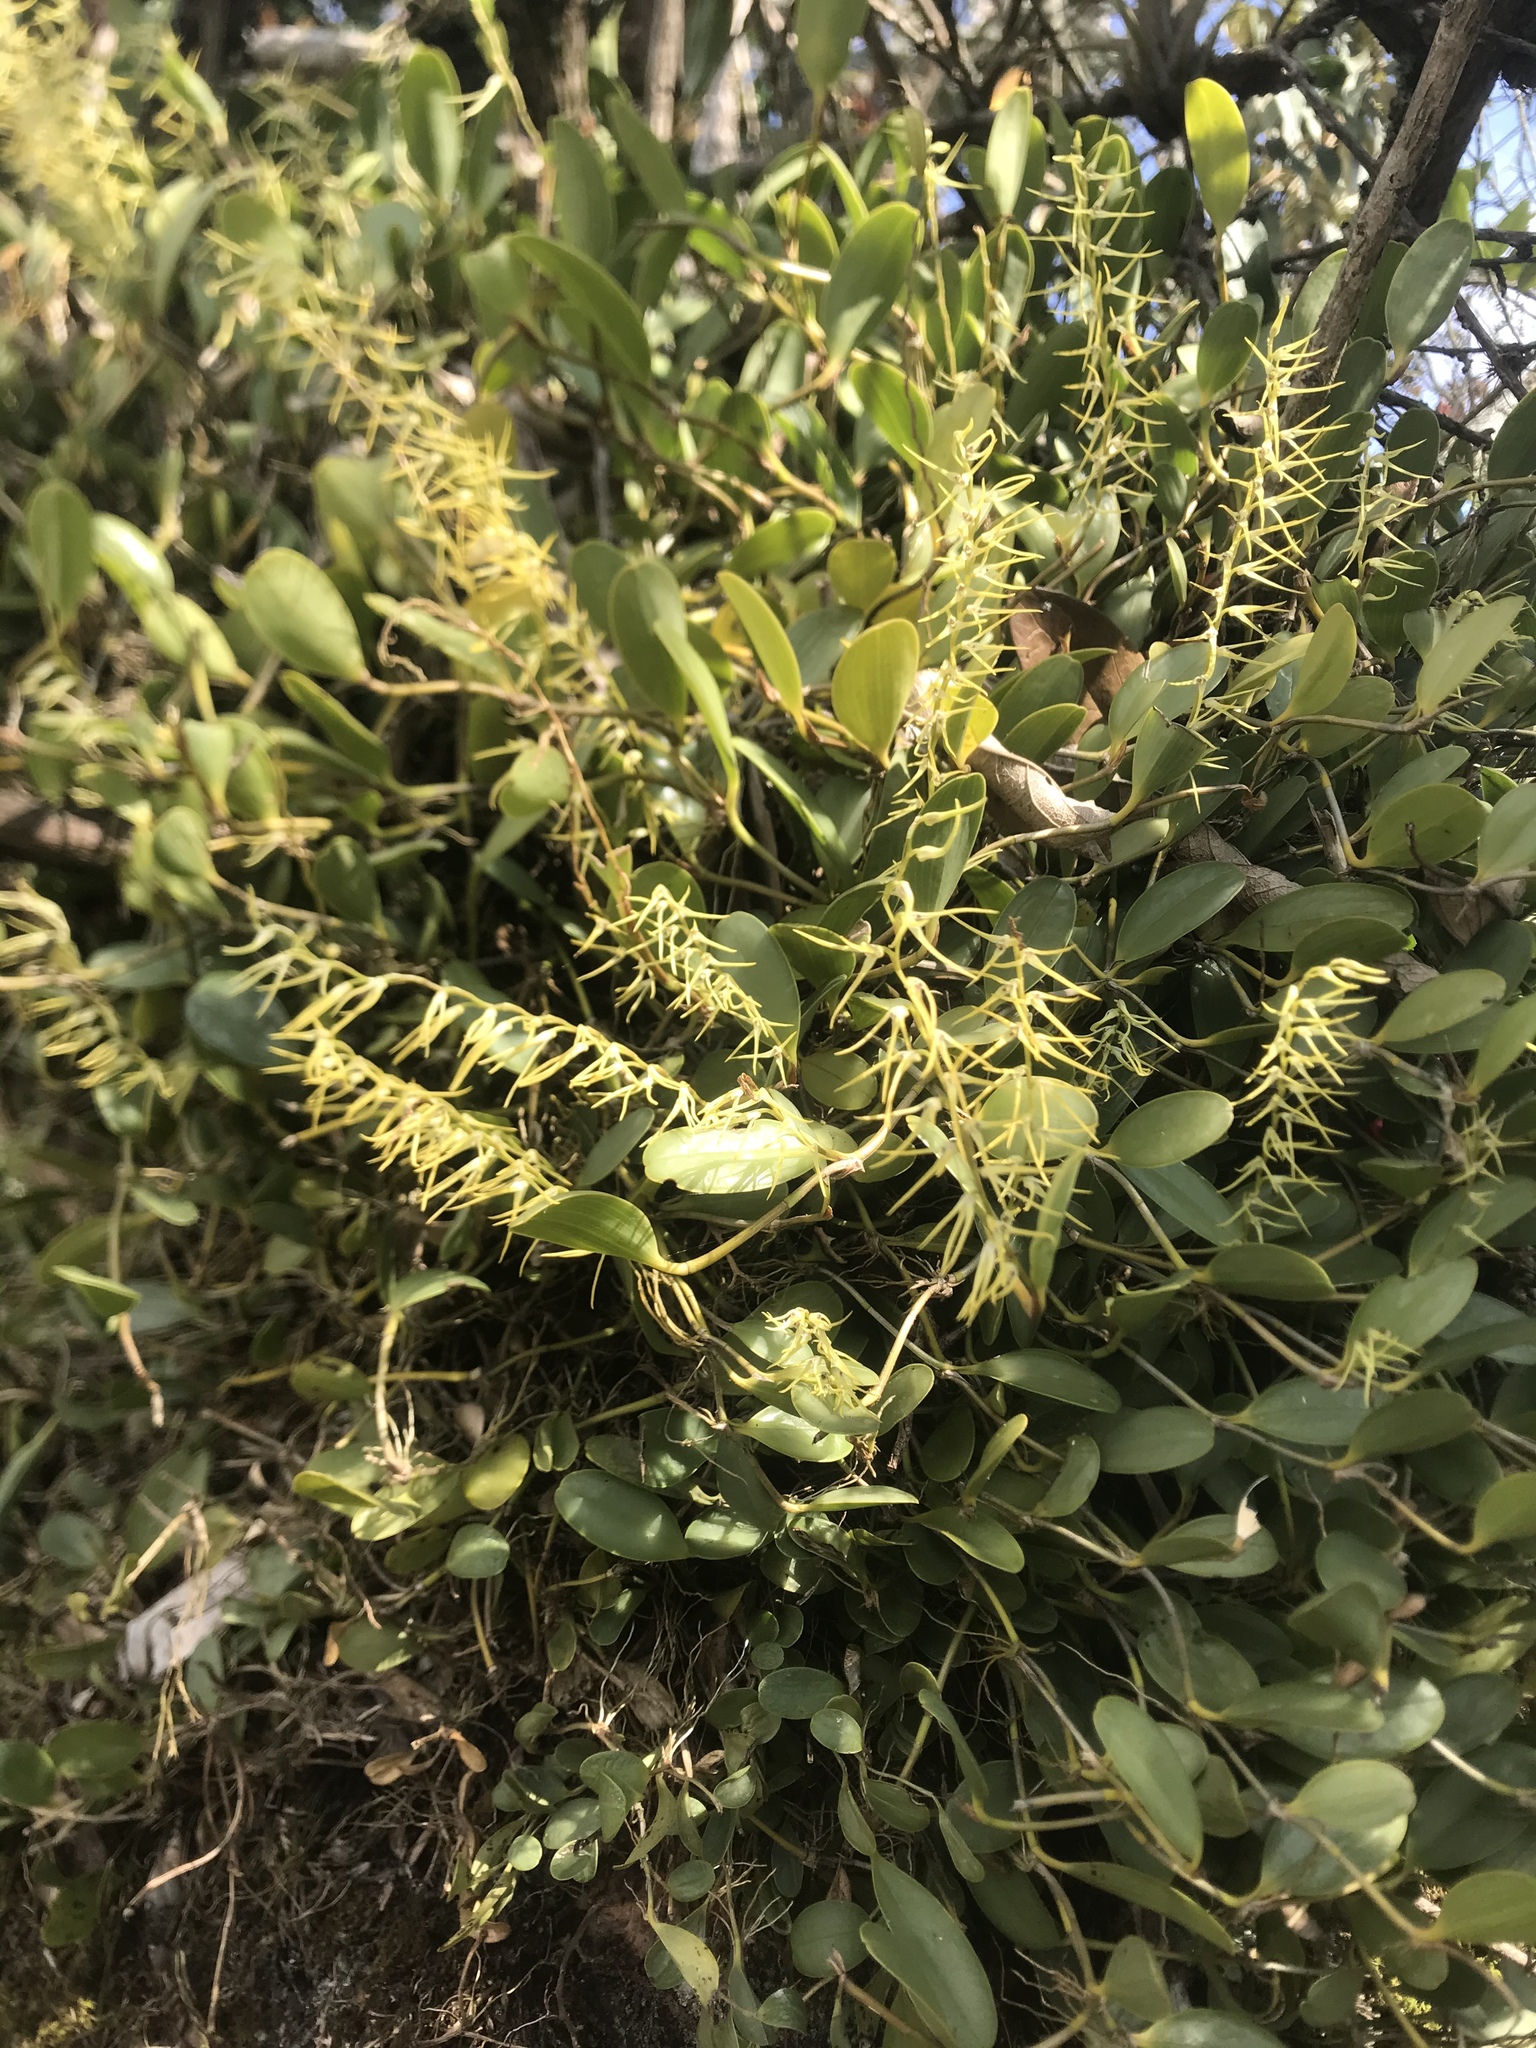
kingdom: Plantae
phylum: Tracheophyta
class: Liliopsida
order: Asparagales
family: Orchidaceae
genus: Stelis
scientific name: Stelis sclerophylla
